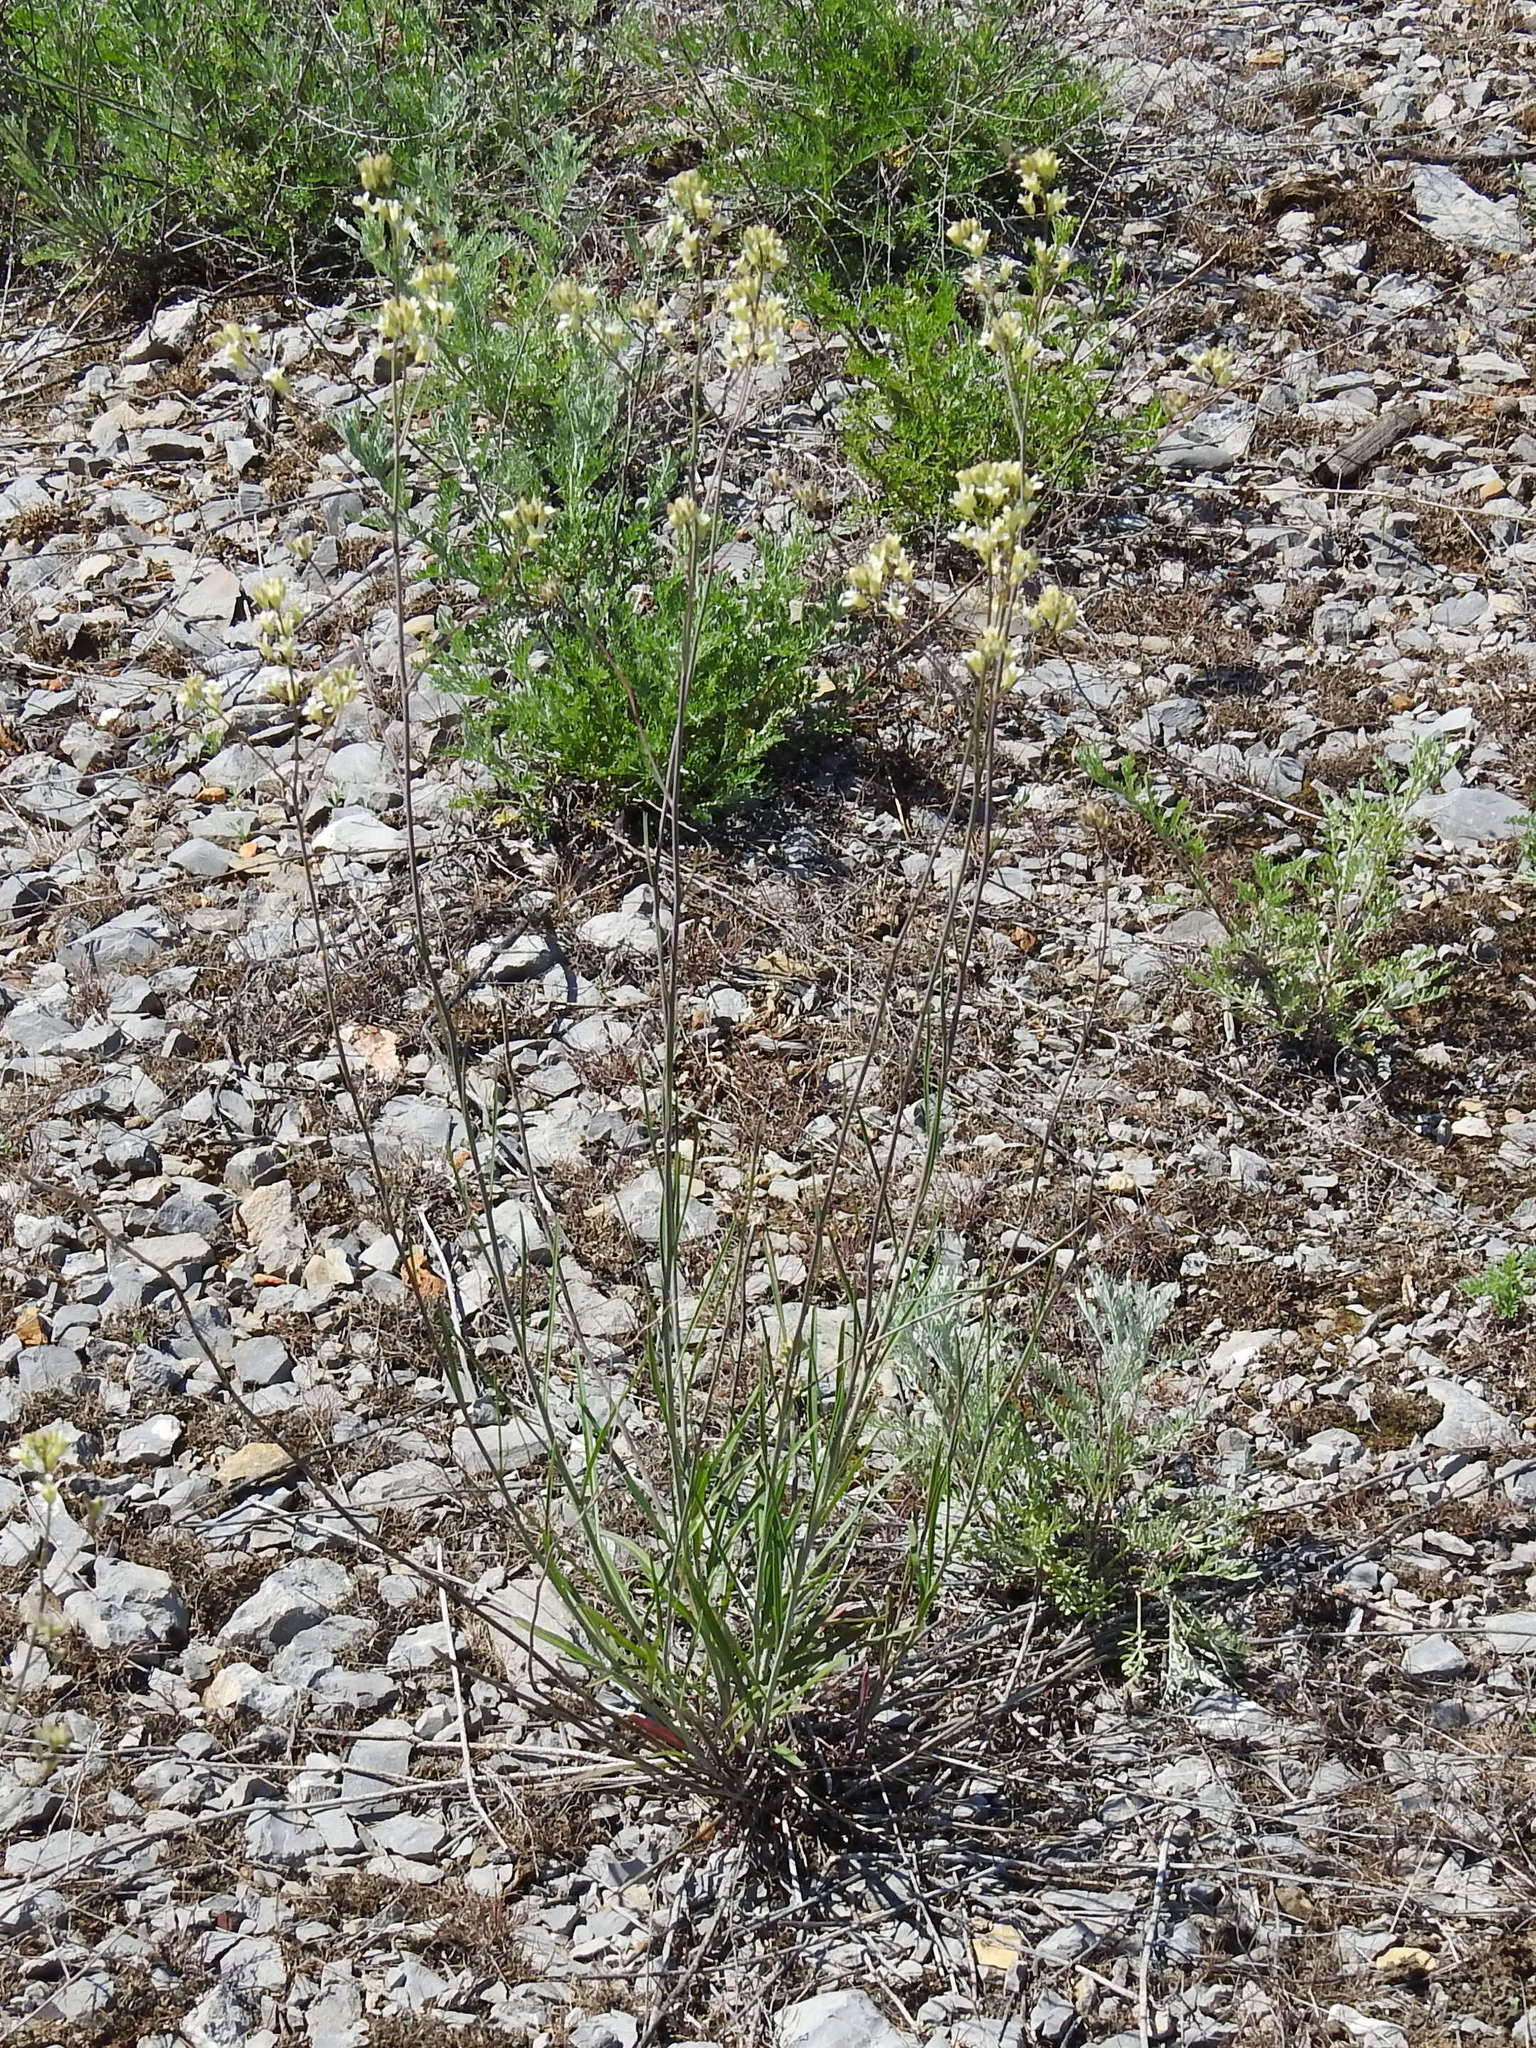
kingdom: Plantae
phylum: Tracheophyta
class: Magnoliopsida
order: Brassicales
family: Brassicaceae
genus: Sisymbrium
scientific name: Sisymbrium polymorphum
